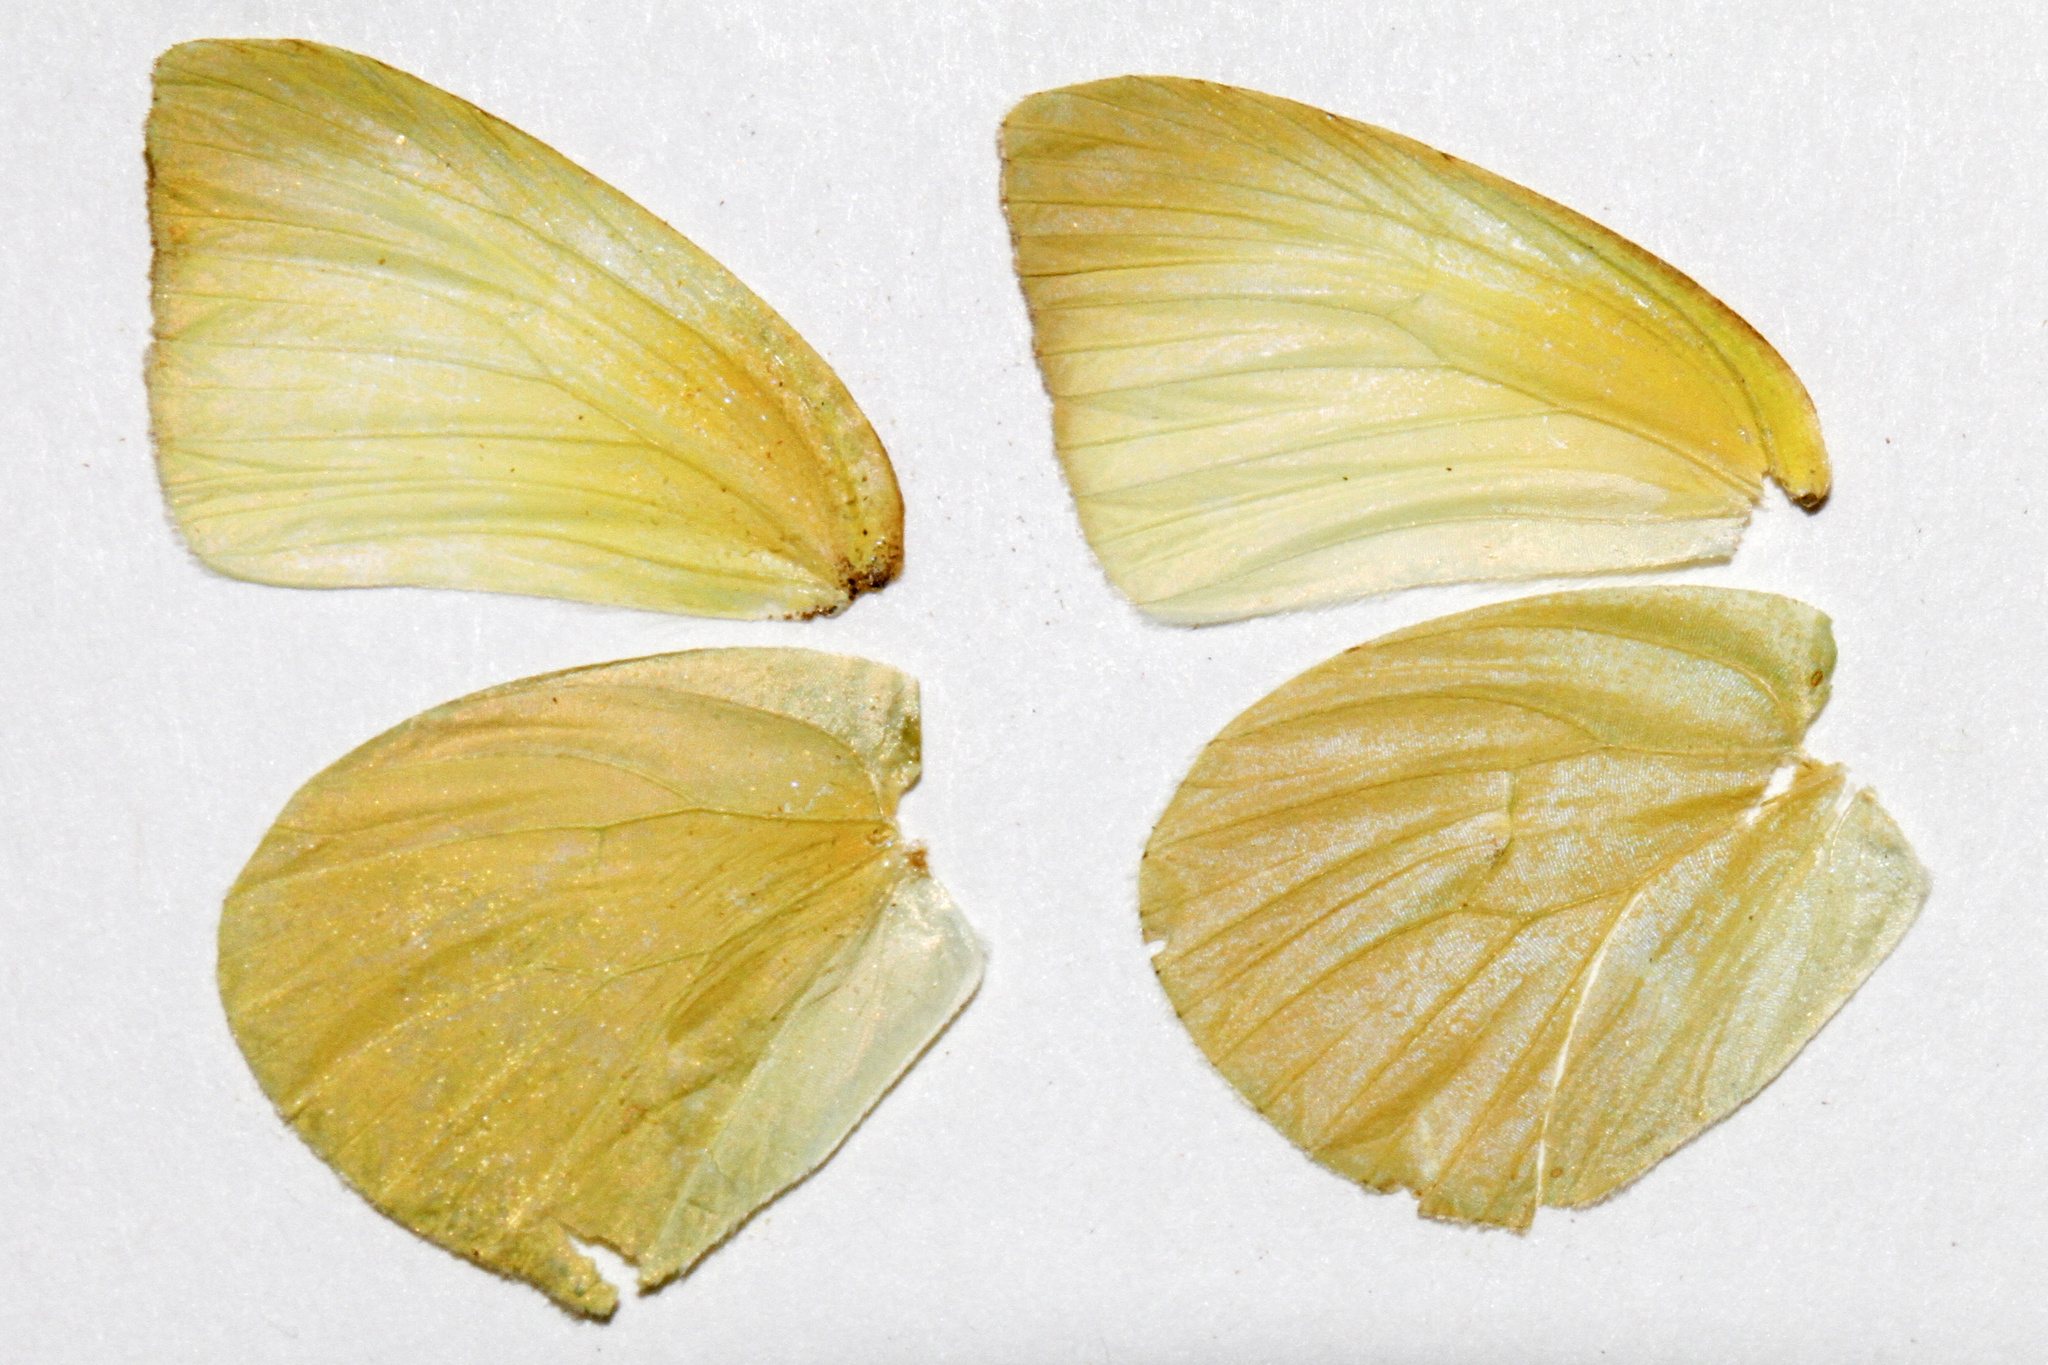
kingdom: Animalia
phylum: Arthropoda
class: Insecta
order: Lepidoptera
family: Pieridae
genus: Kricogonia
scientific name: Kricogonia lyside
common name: Guayacan sulphur,
